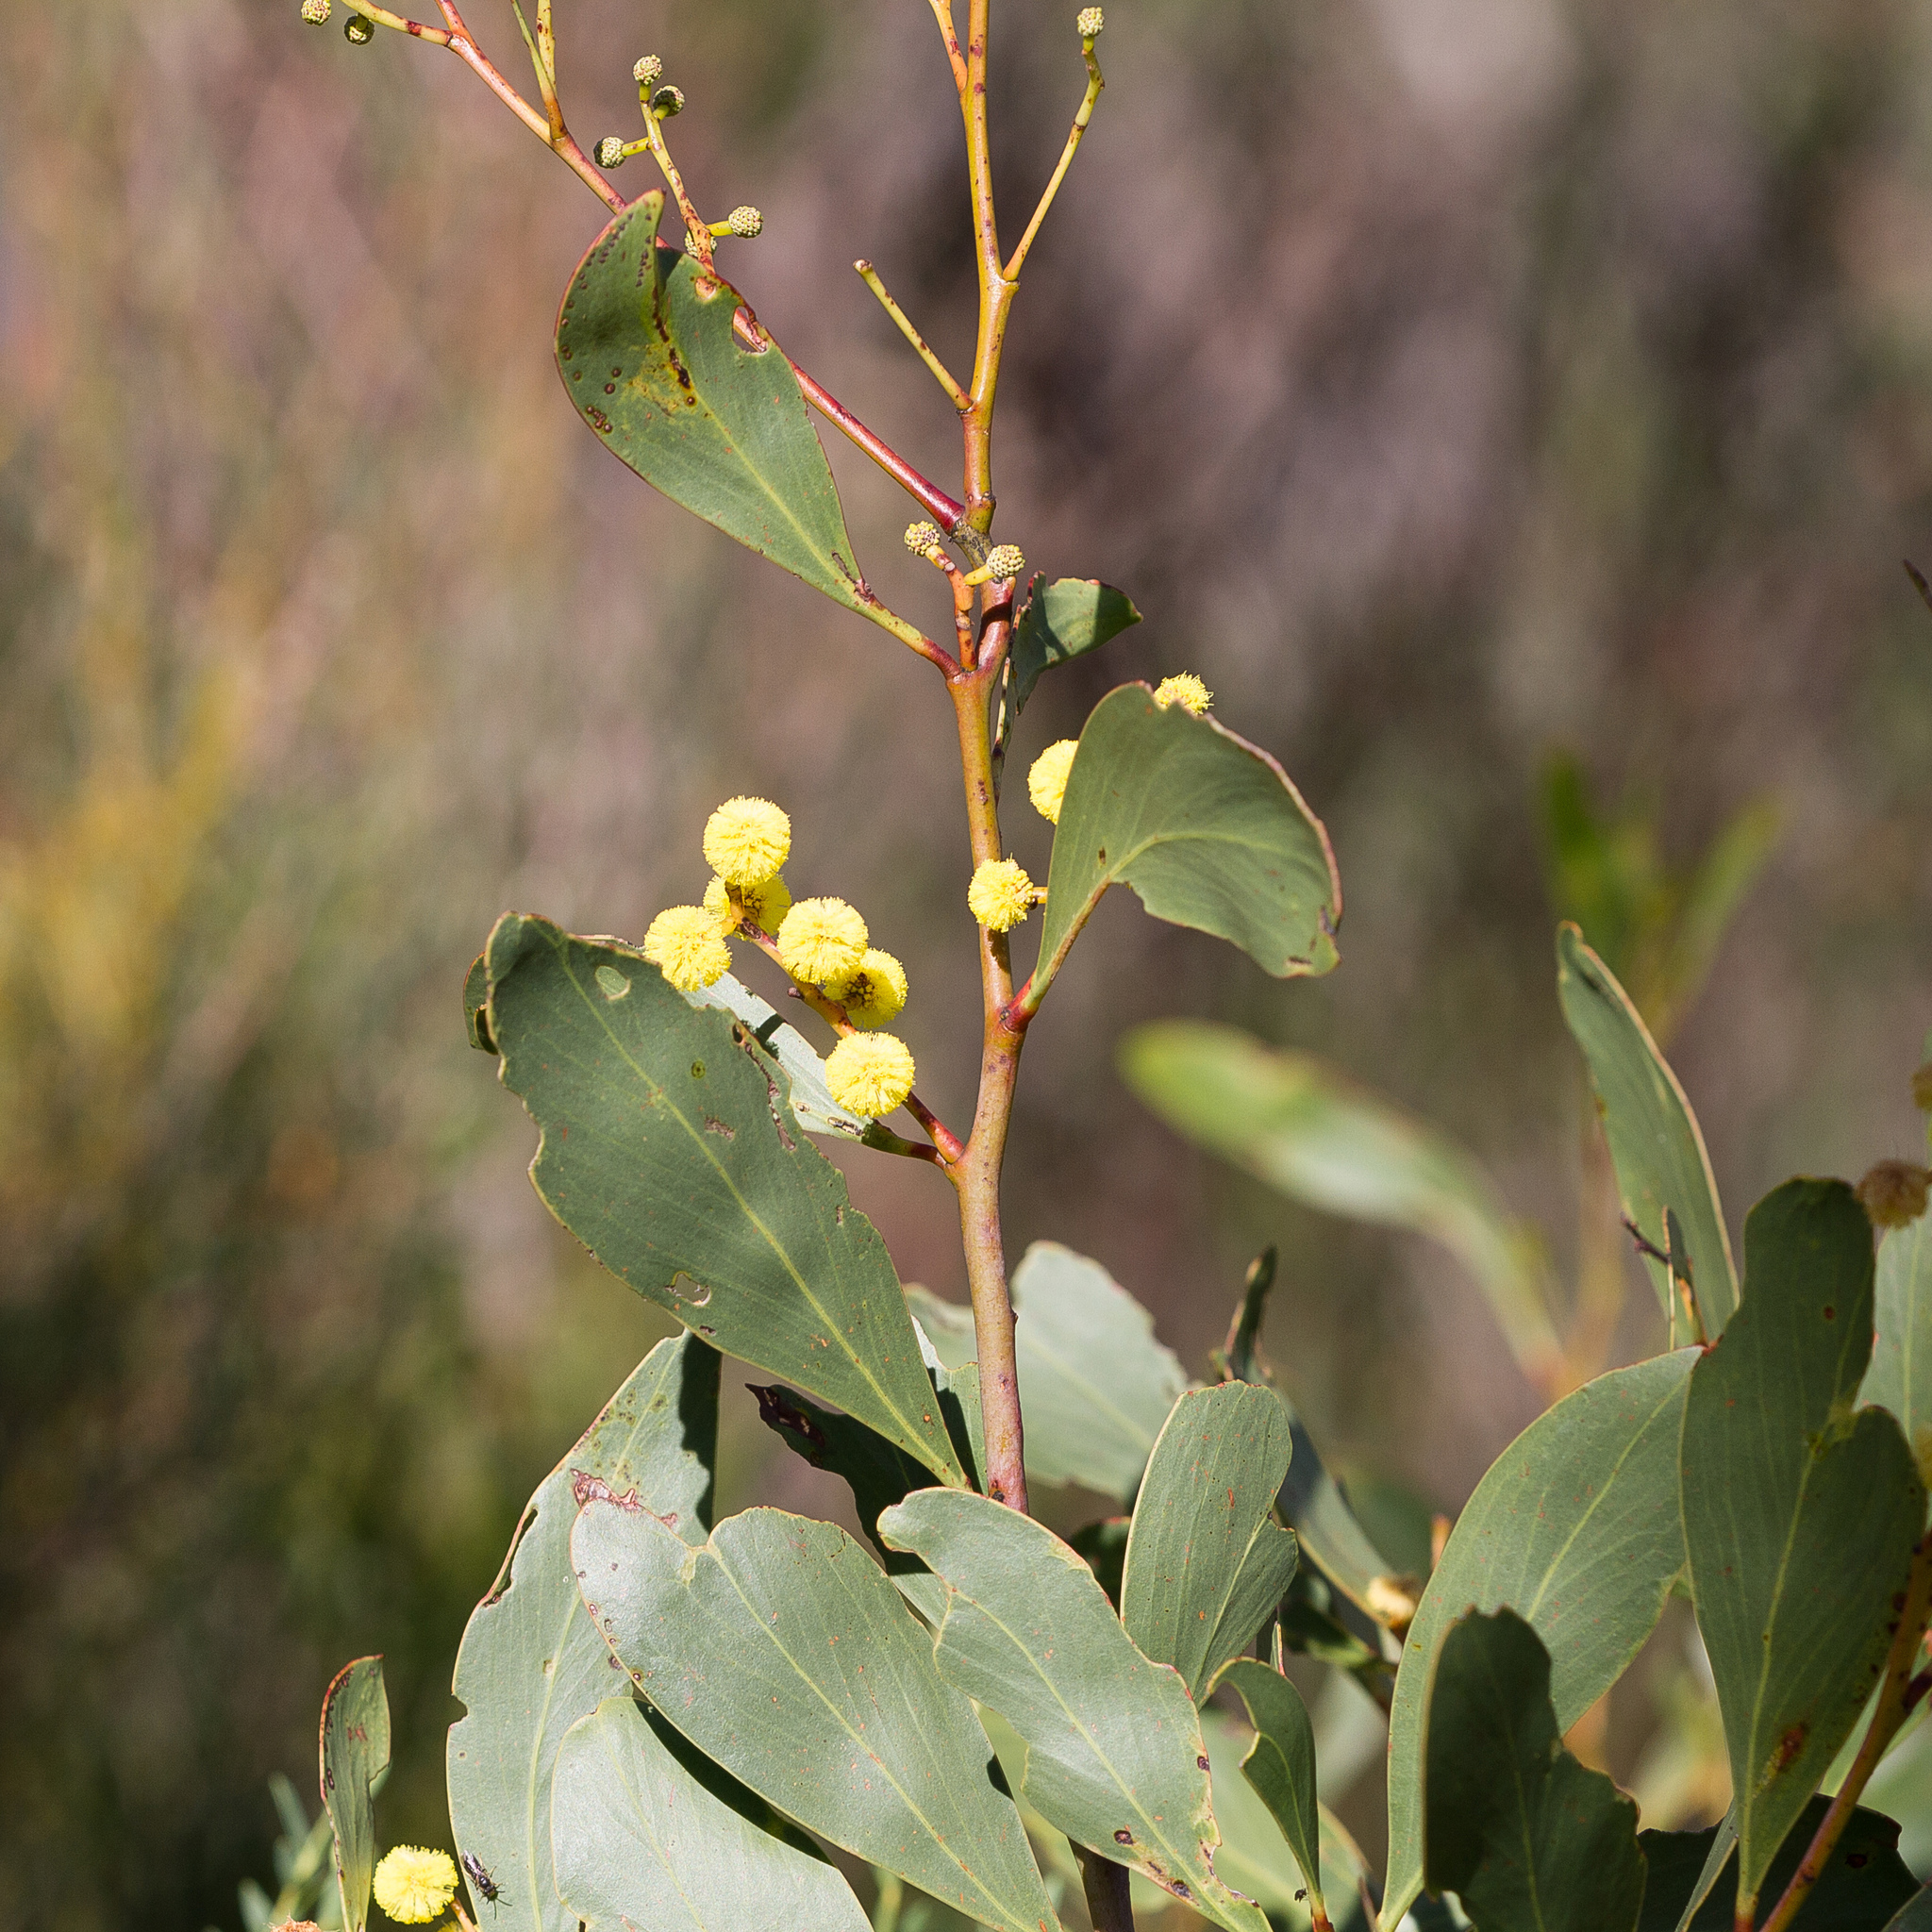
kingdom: Plantae
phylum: Tracheophyta
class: Magnoliopsida
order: Fabales
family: Fabaceae
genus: Acacia
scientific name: Acacia pycnantha
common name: Golden wattle
